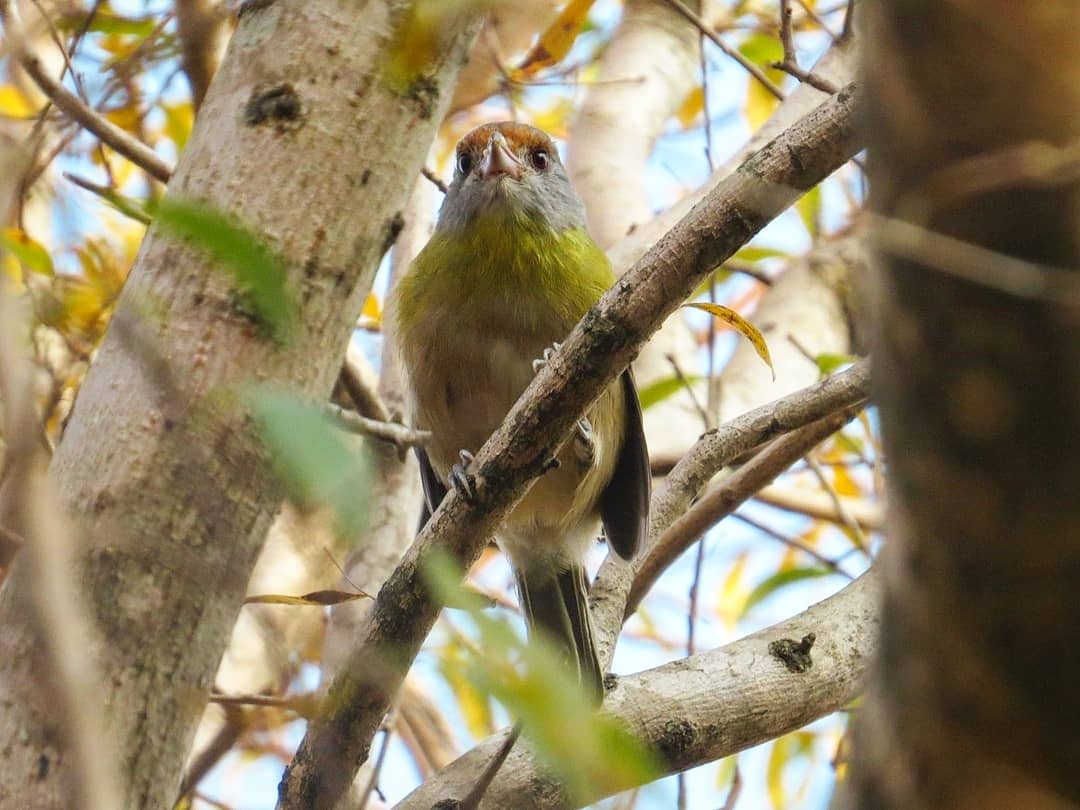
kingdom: Animalia
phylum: Chordata
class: Aves
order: Passeriformes
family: Vireonidae
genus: Cyclarhis
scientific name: Cyclarhis gujanensis
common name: Rufous-browed peppershrike
